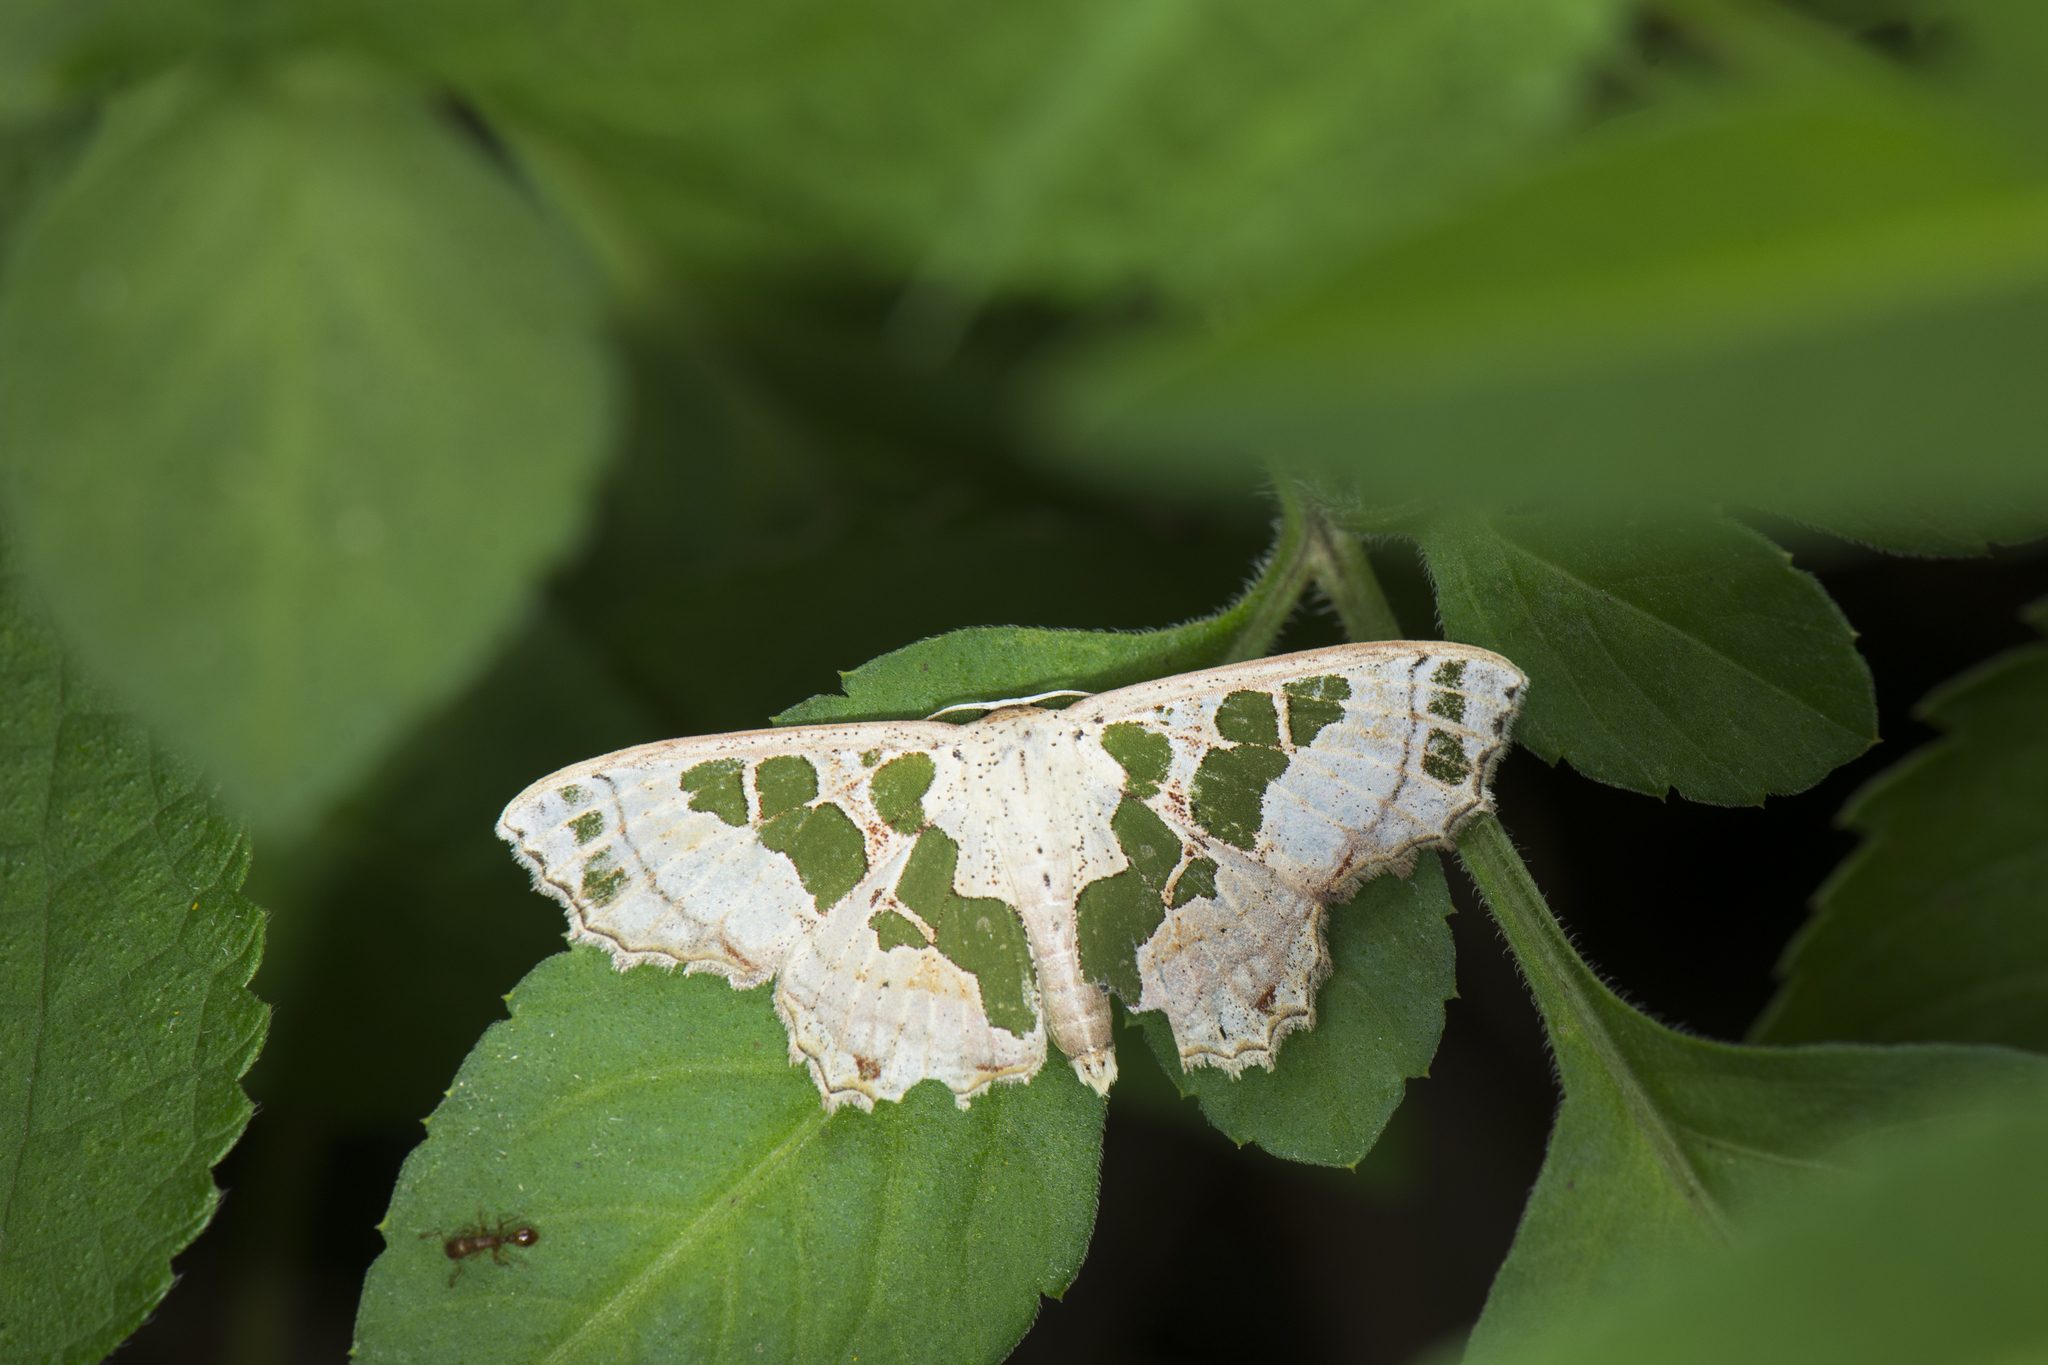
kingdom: Animalia
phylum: Arthropoda
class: Insecta
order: Lepidoptera
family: Geometridae
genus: Scopula
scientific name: Scopula divisaria
